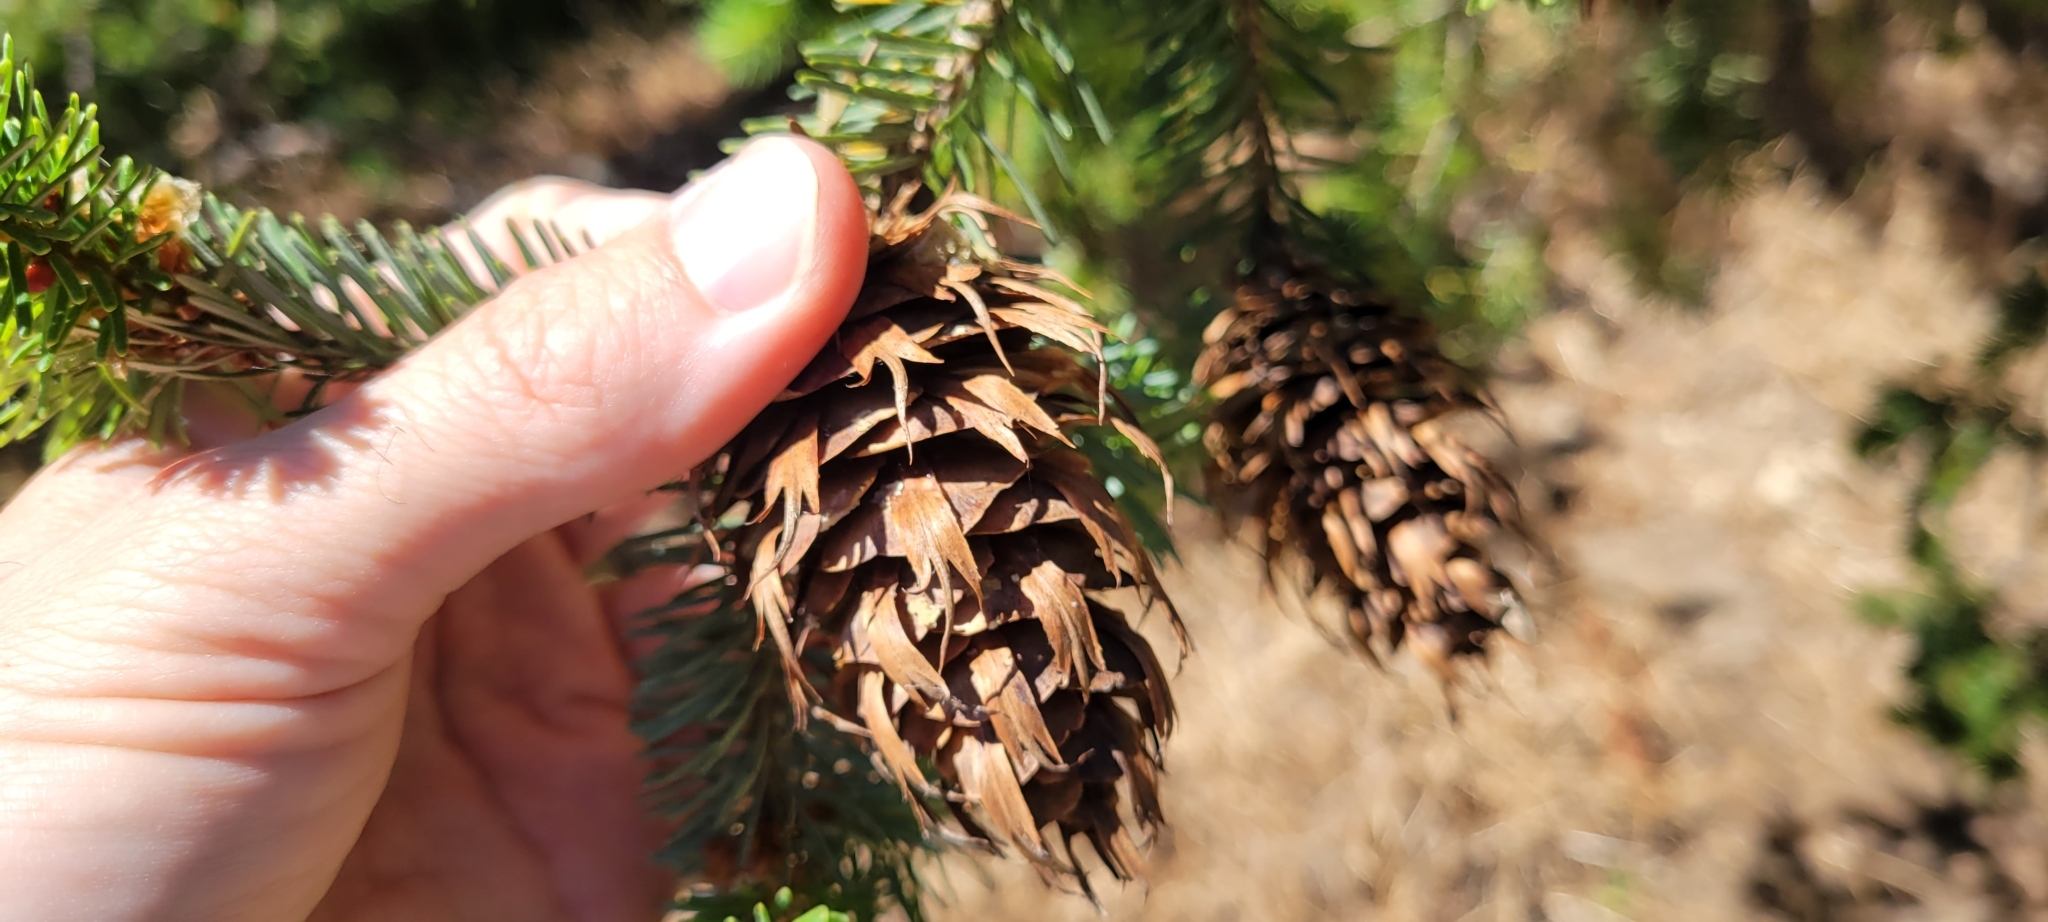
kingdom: Plantae
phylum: Tracheophyta
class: Pinopsida
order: Pinales
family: Pinaceae
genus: Pseudotsuga
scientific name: Pseudotsuga menziesii
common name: Douglas fir
